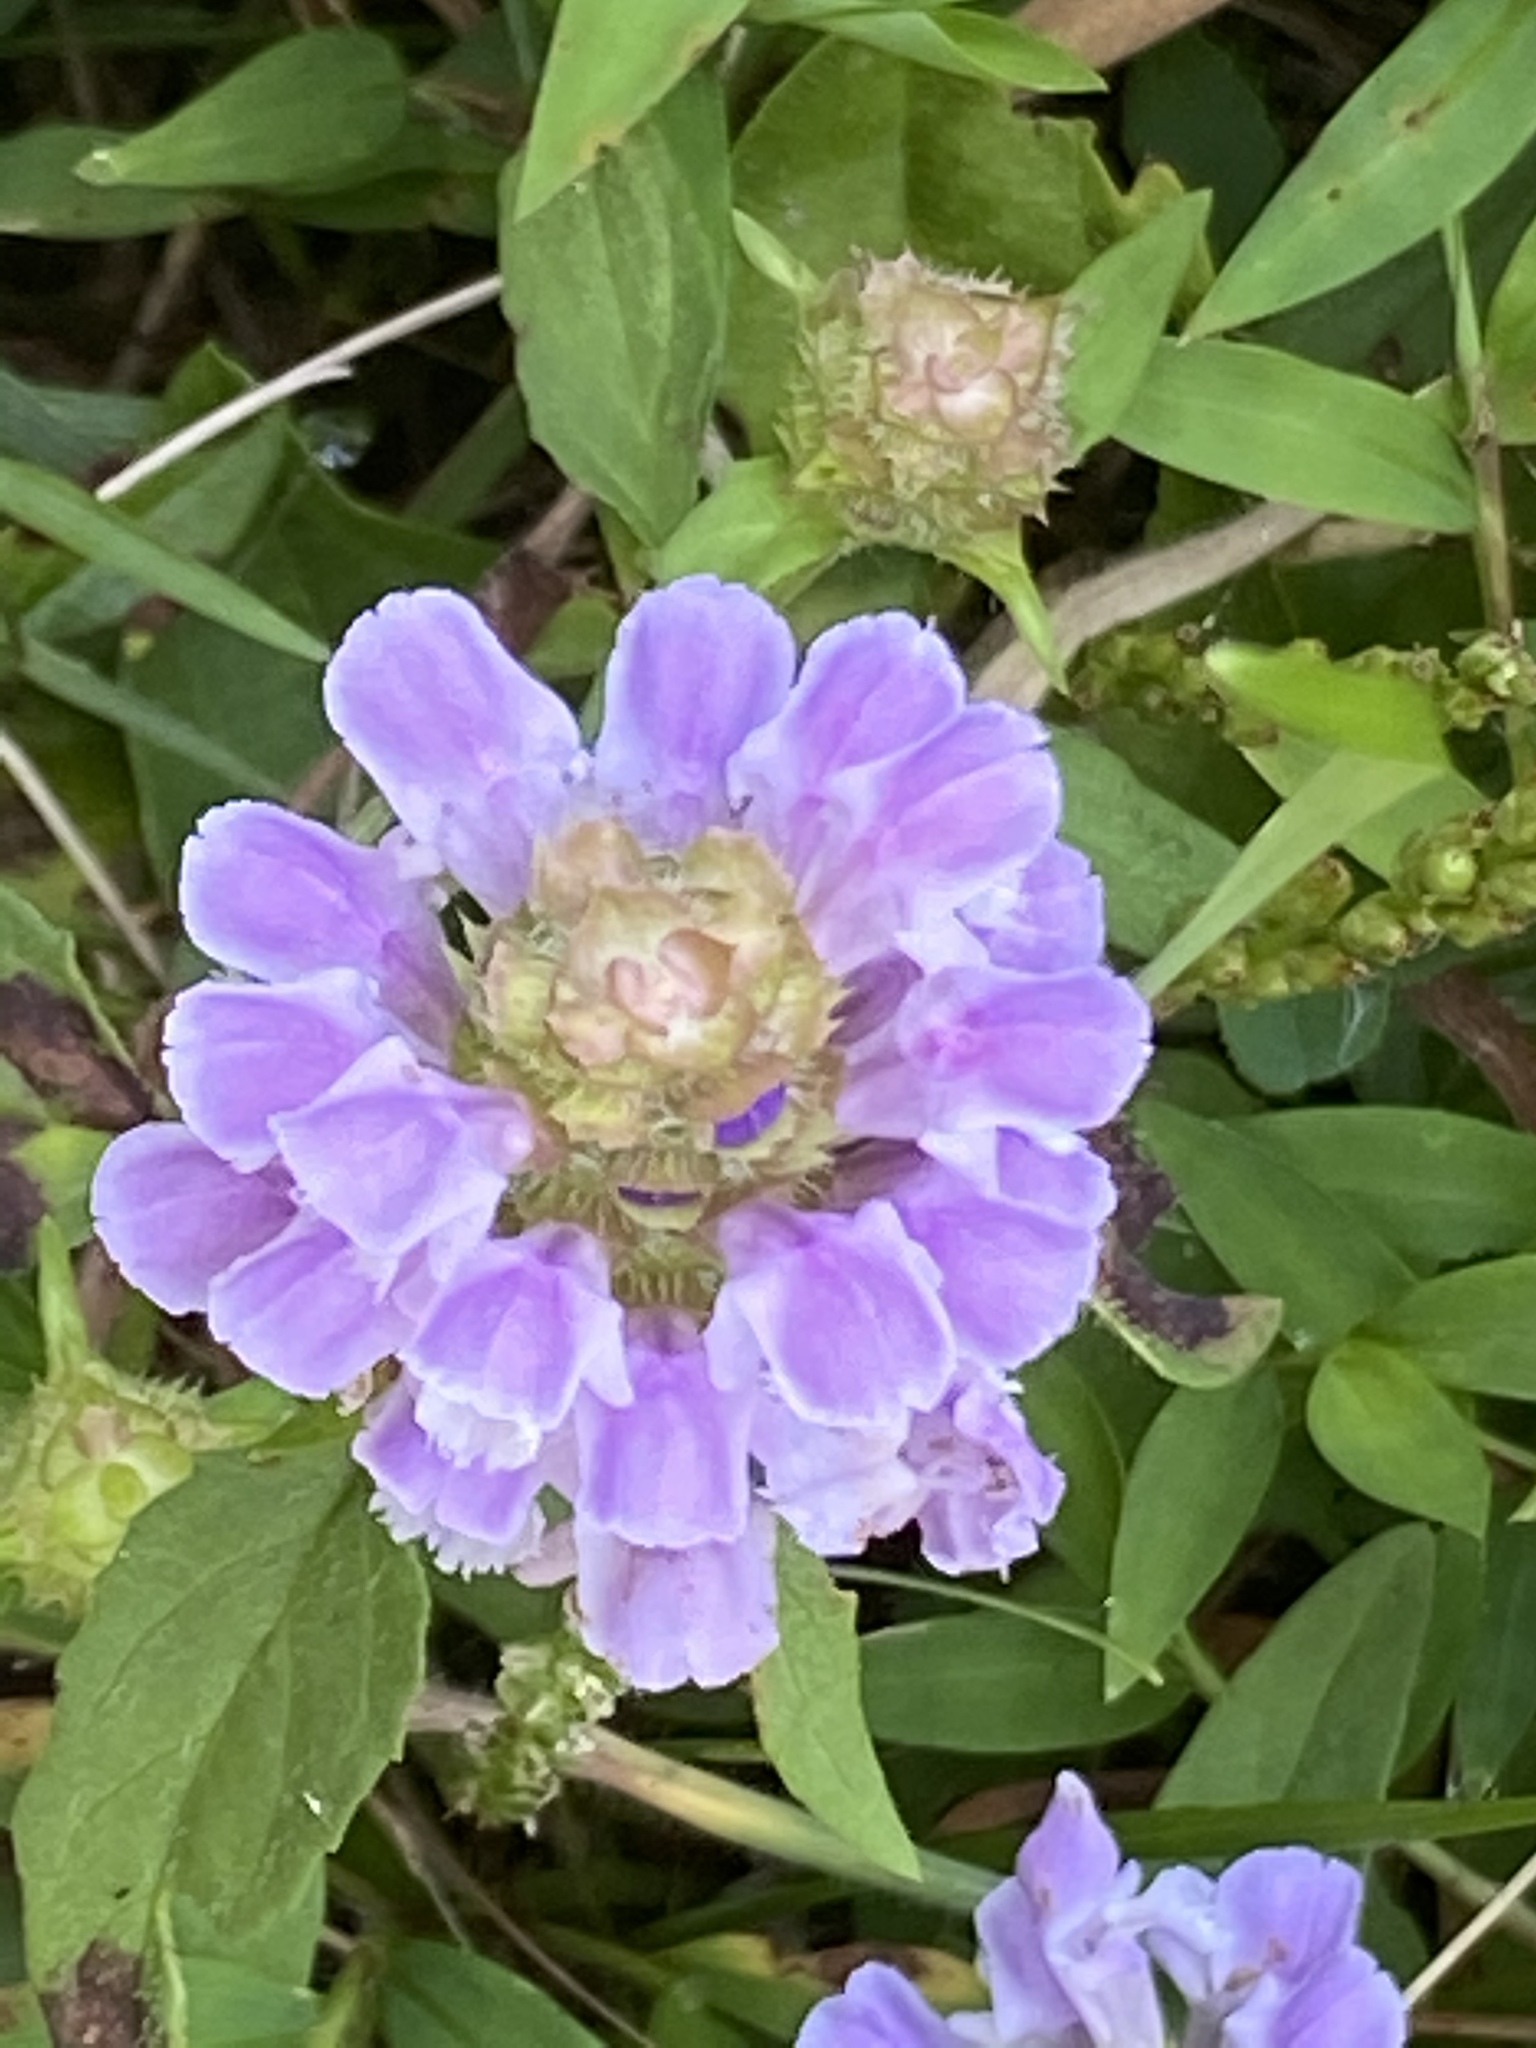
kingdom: Plantae
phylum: Tracheophyta
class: Magnoliopsida
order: Lamiales
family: Lamiaceae
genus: Prunella
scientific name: Prunella vulgaris
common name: Heal-all
